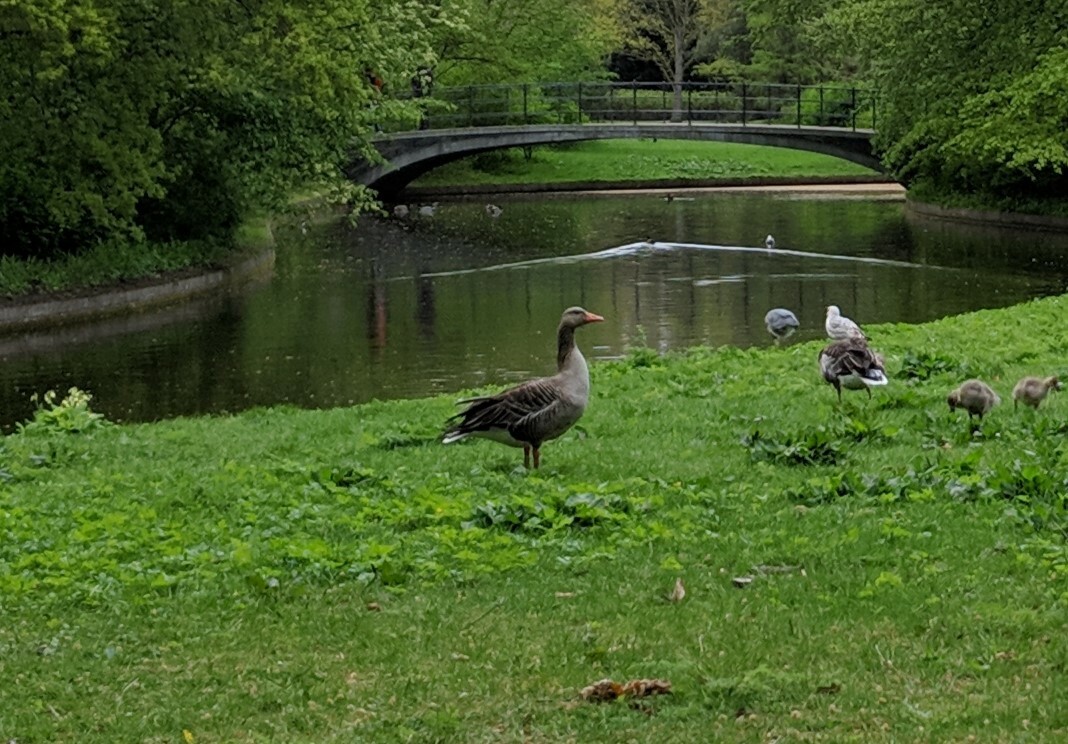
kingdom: Animalia
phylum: Chordata
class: Aves
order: Anseriformes
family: Anatidae
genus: Anser
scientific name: Anser anser
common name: Greylag goose
